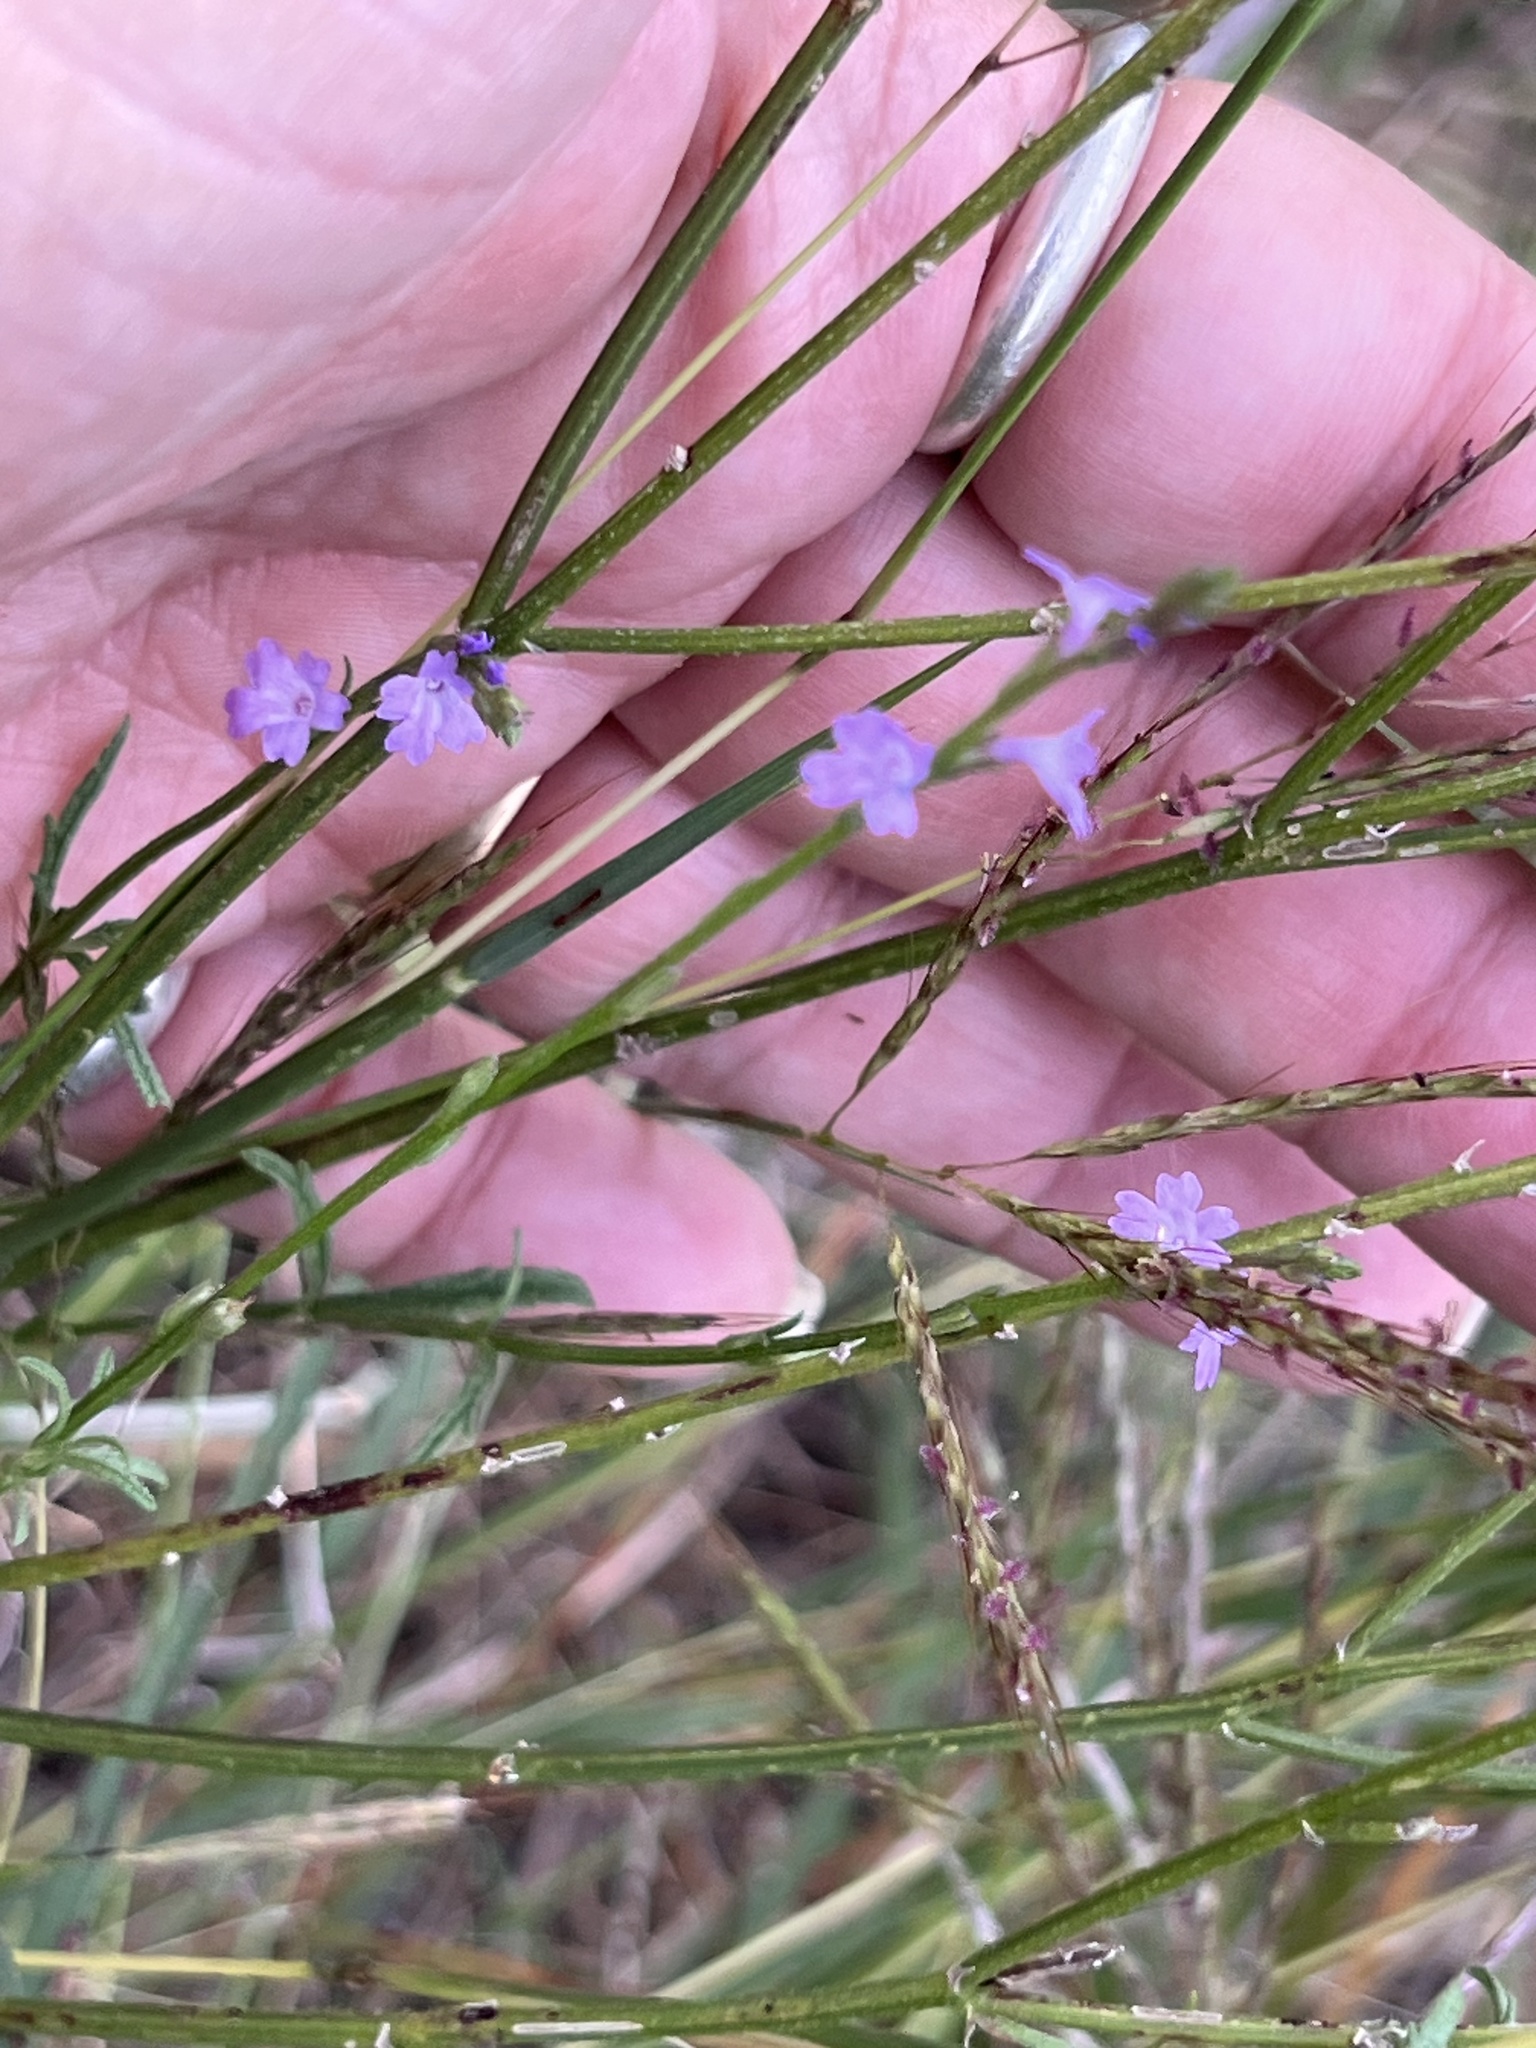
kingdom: Plantae
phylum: Tracheophyta
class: Magnoliopsida
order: Lamiales
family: Verbenaceae
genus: Verbena
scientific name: Verbena halei
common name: Texas vervain
